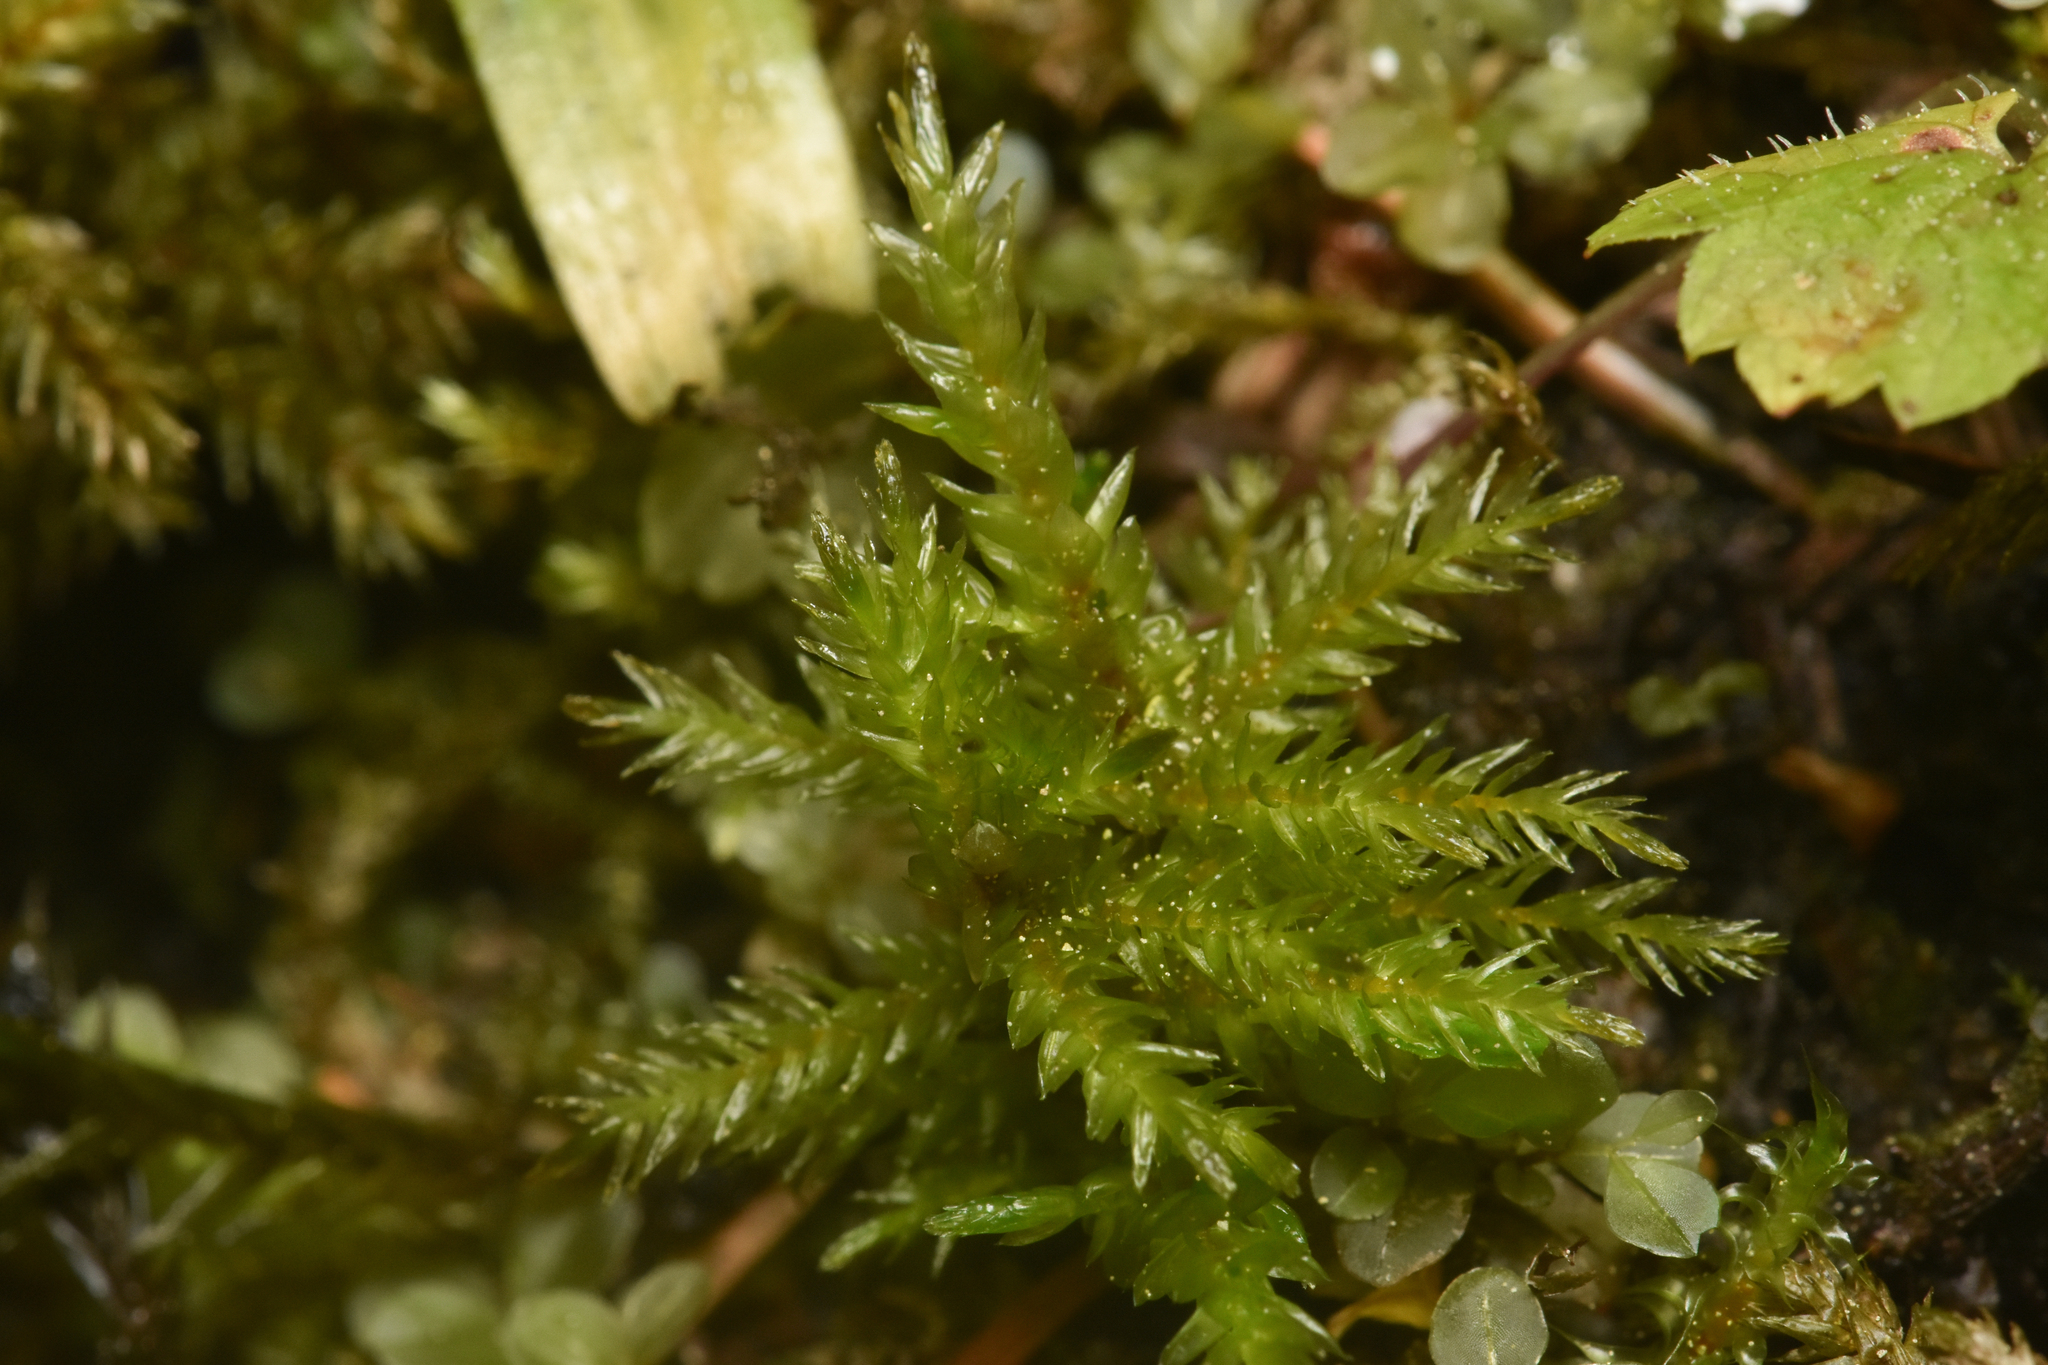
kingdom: Plantae
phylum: Bryophyta
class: Bryopsida
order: Hypnales
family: Climaciaceae
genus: Climacium
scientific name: Climacium dendroides
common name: Northern tree moss
